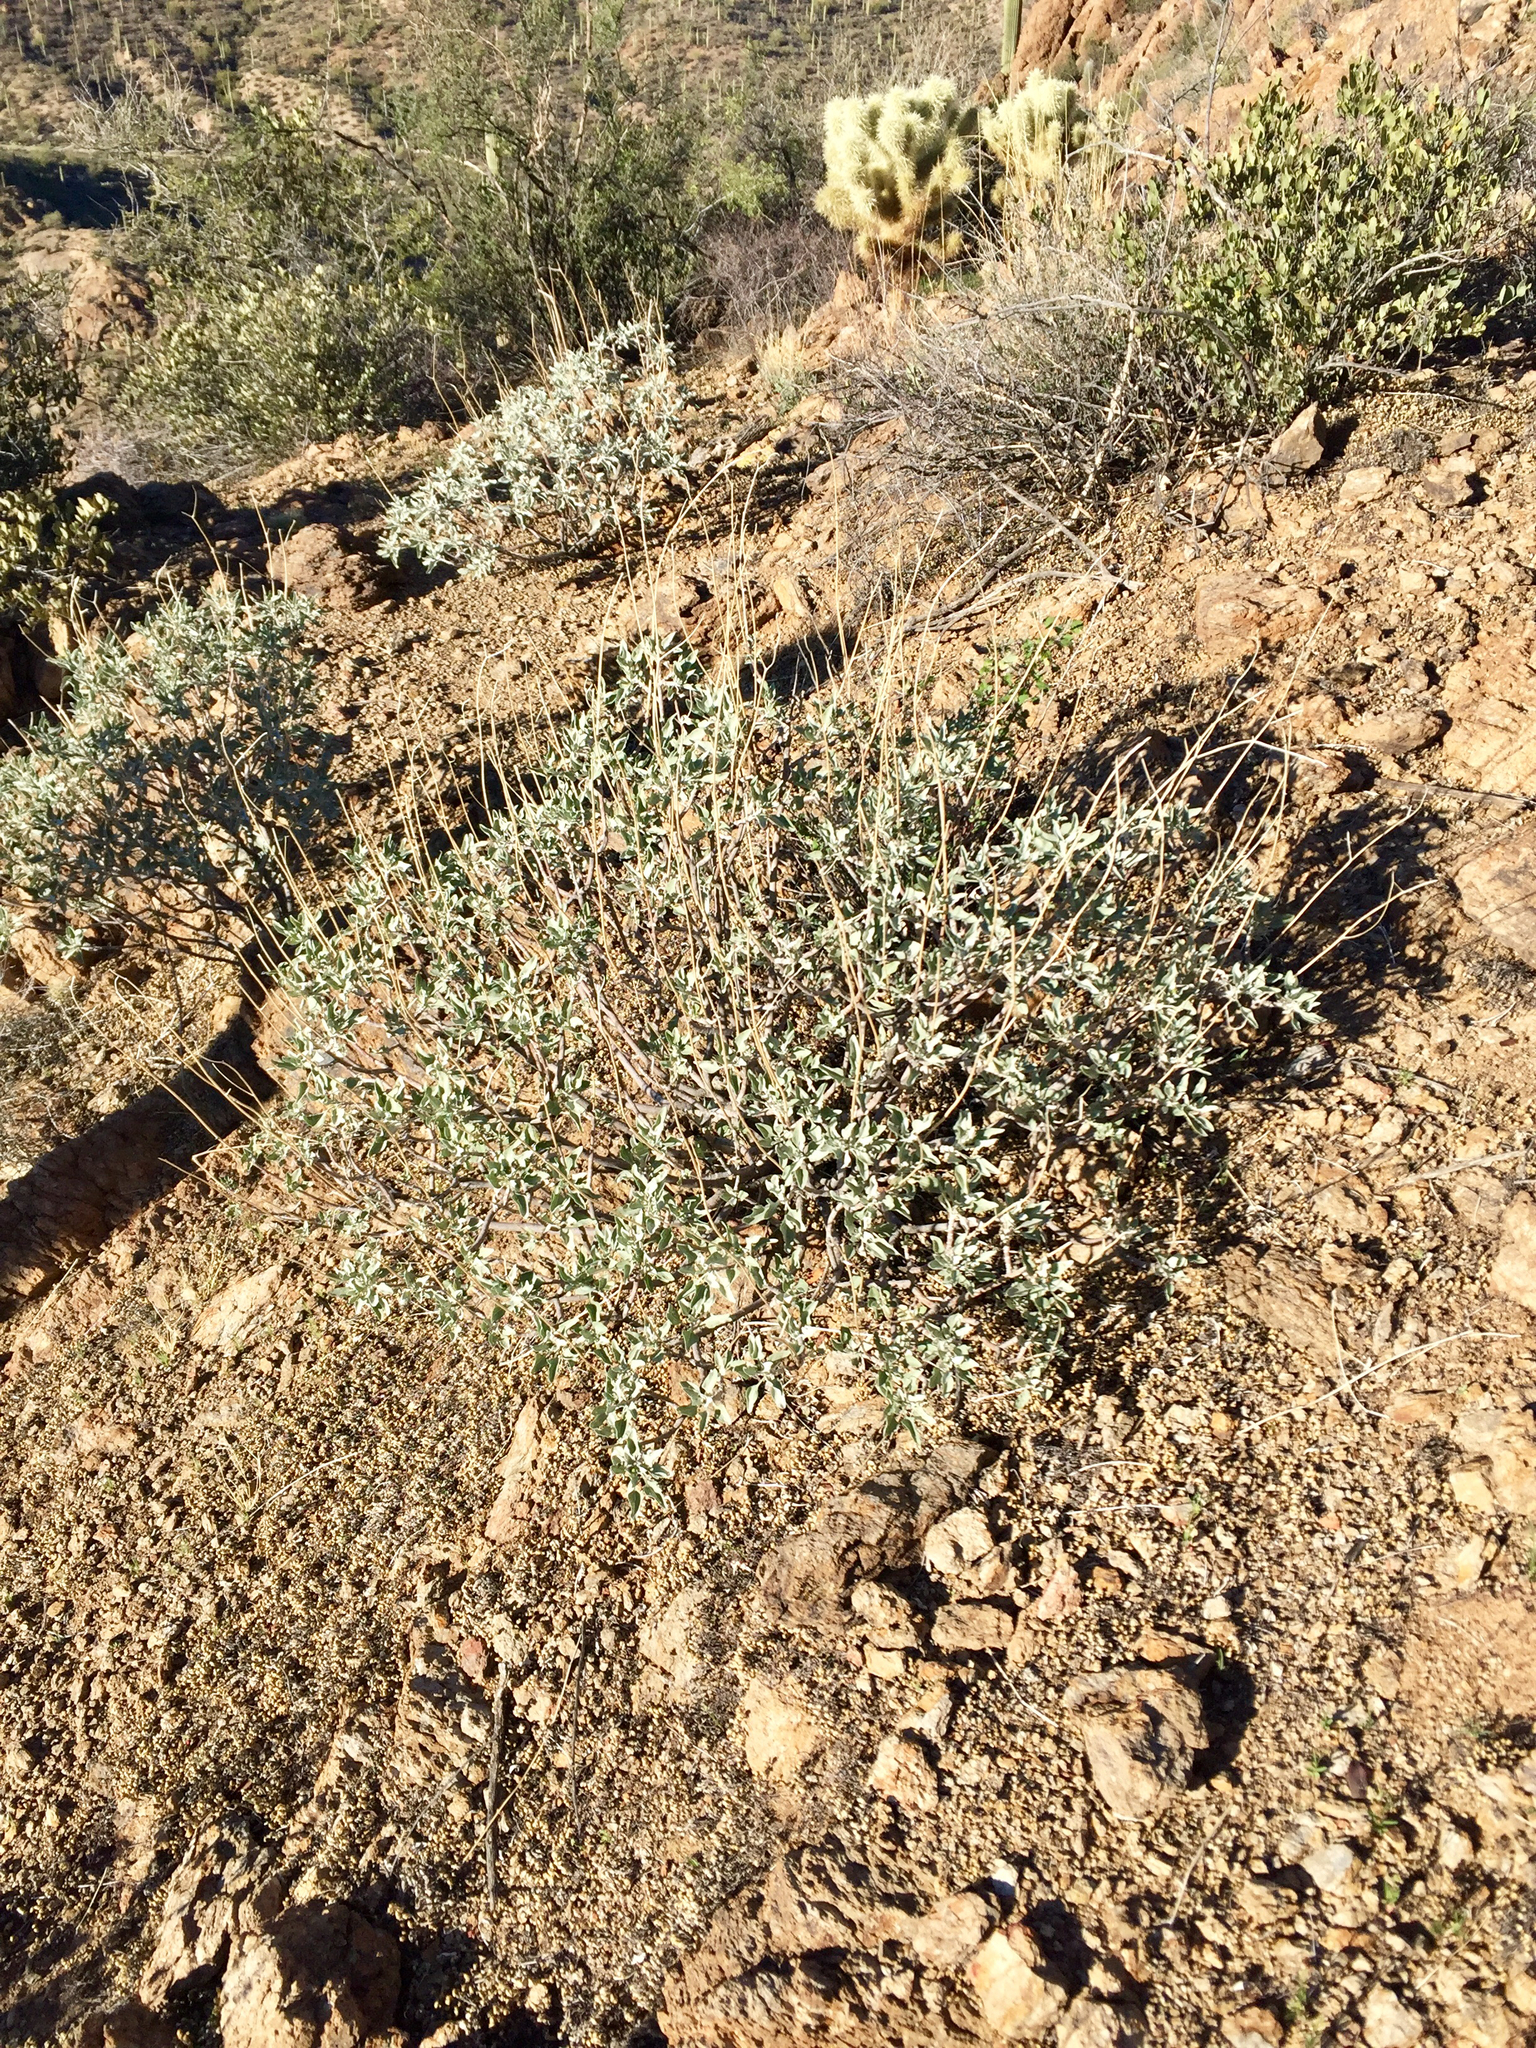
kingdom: Plantae
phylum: Tracheophyta
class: Magnoliopsida
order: Asterales
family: Asteraceae
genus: Encelia
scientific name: Encelia farinosa
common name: Brittlebush
